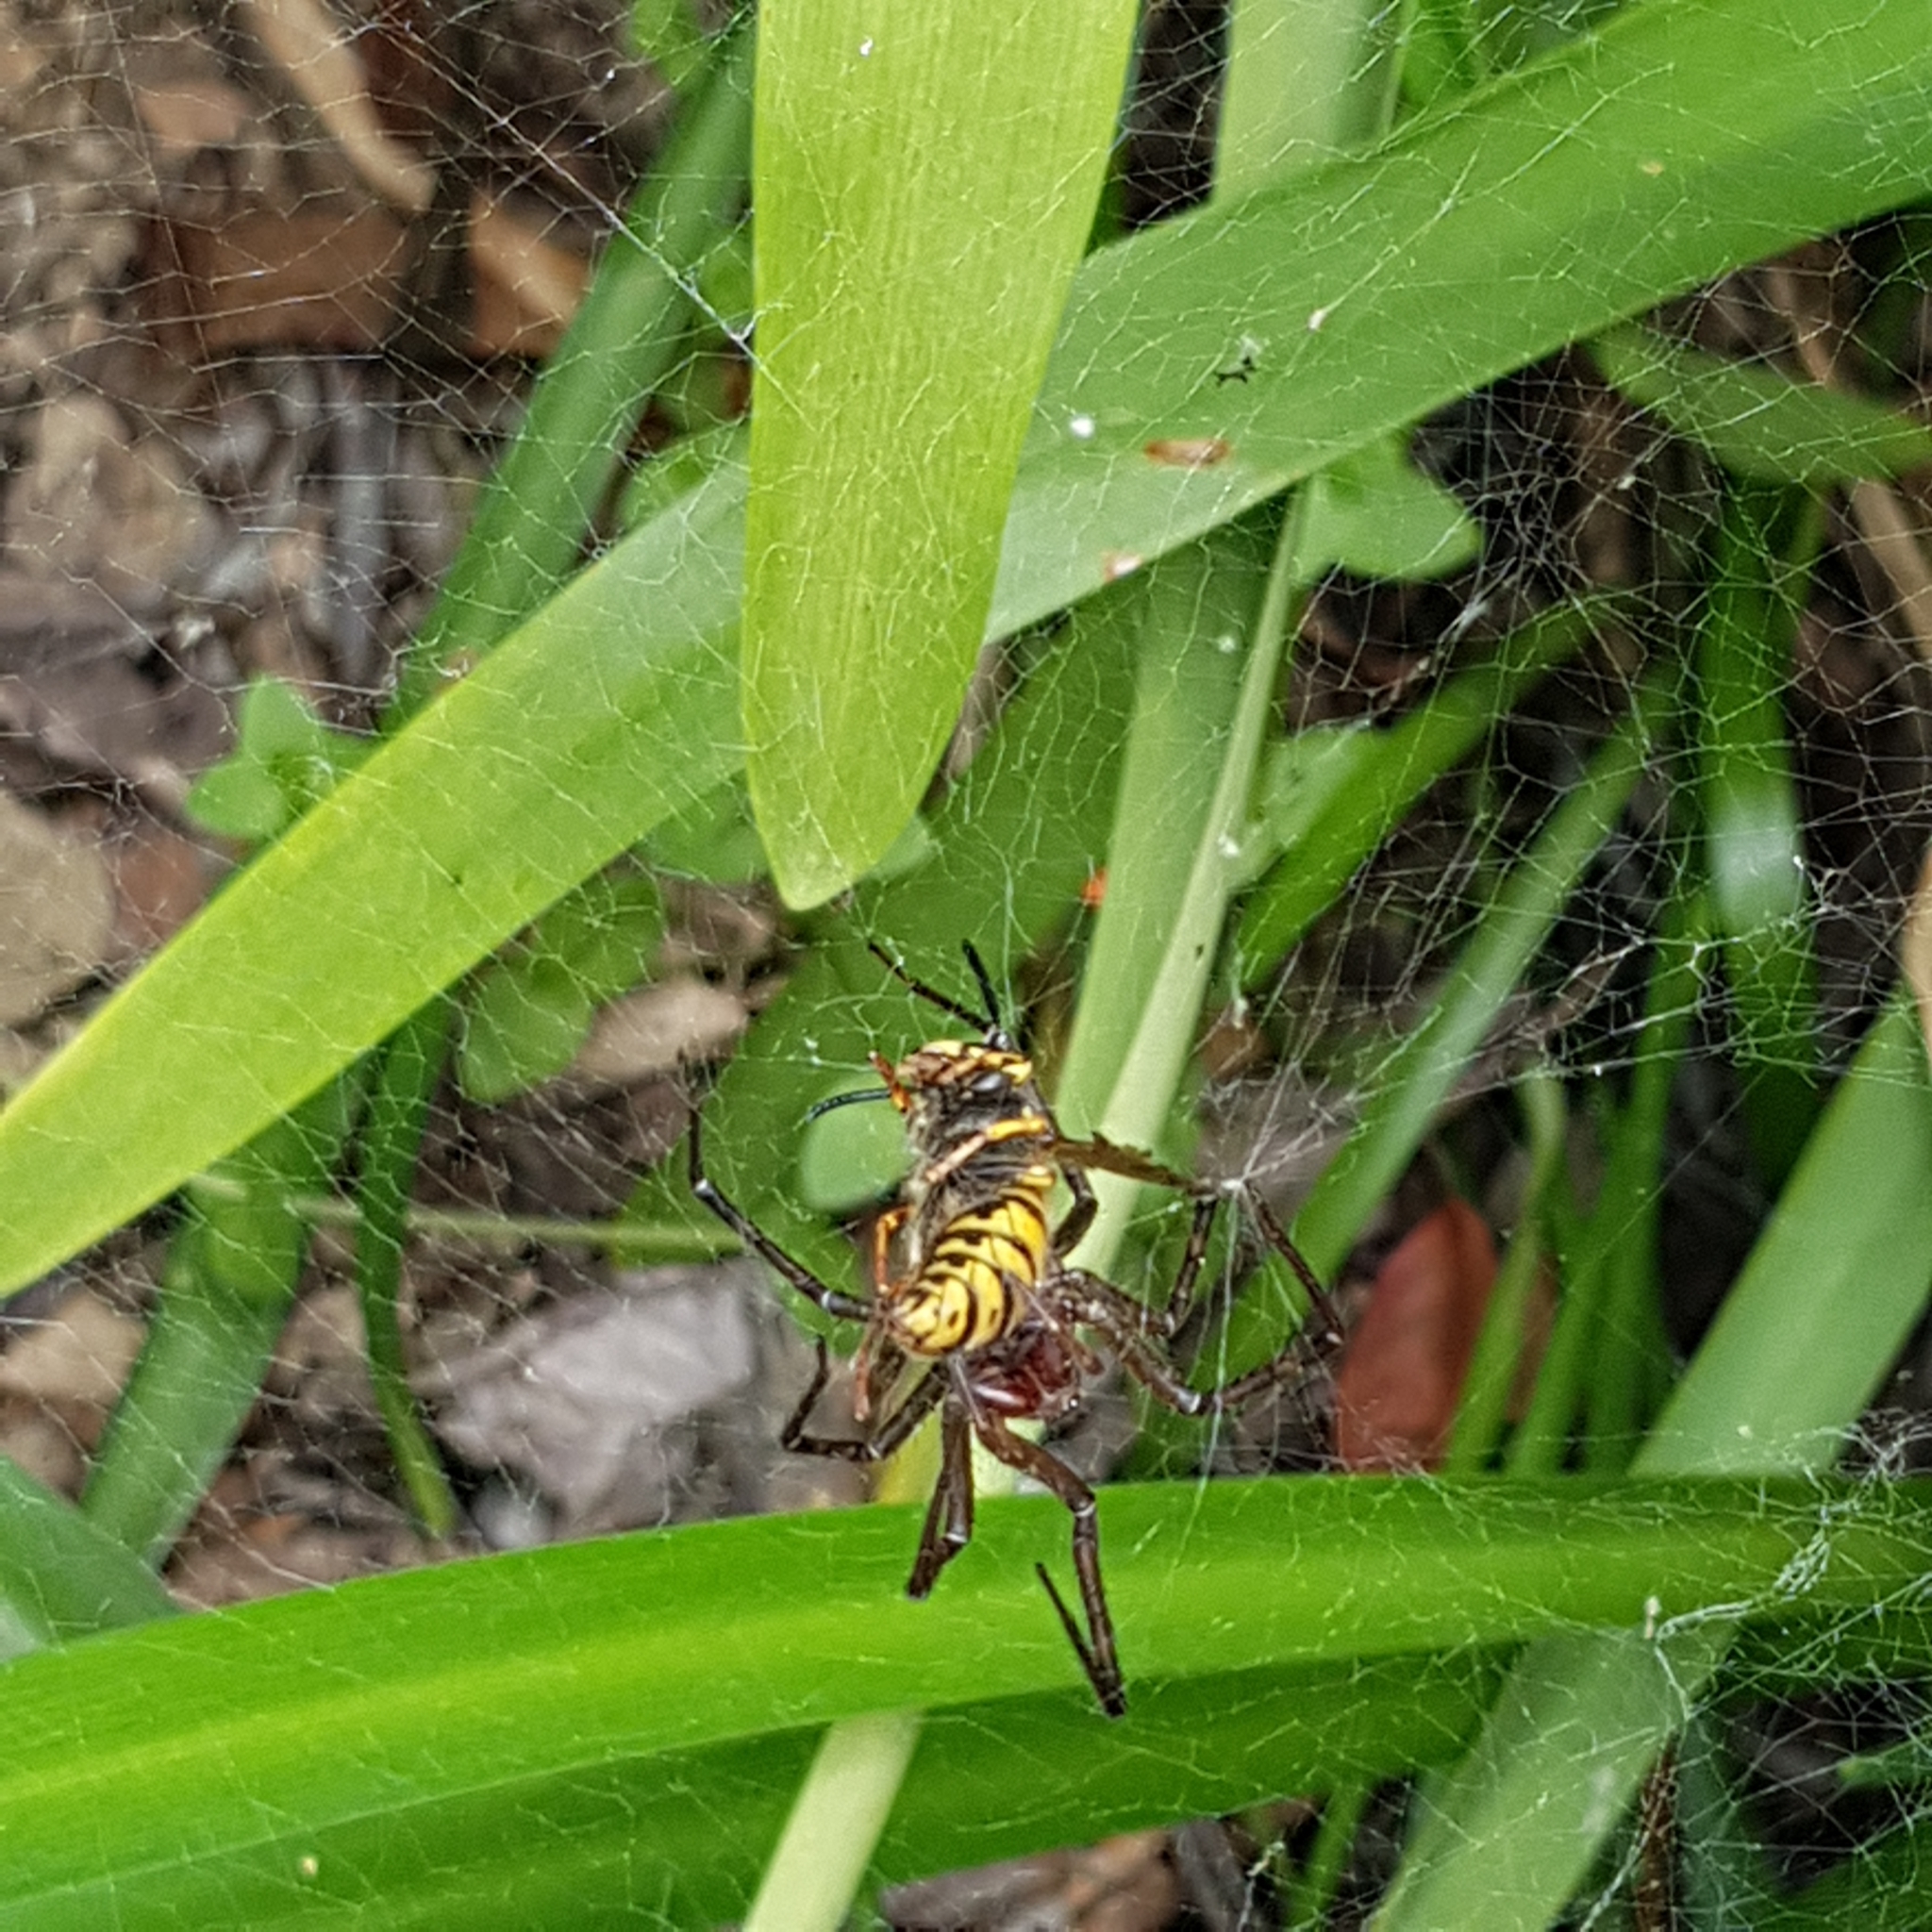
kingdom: Animalia
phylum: Arthropoda
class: Insecta
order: Hymenoptera
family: Vespidae
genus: Vespula
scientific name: Vespula germanica
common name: German wasp
